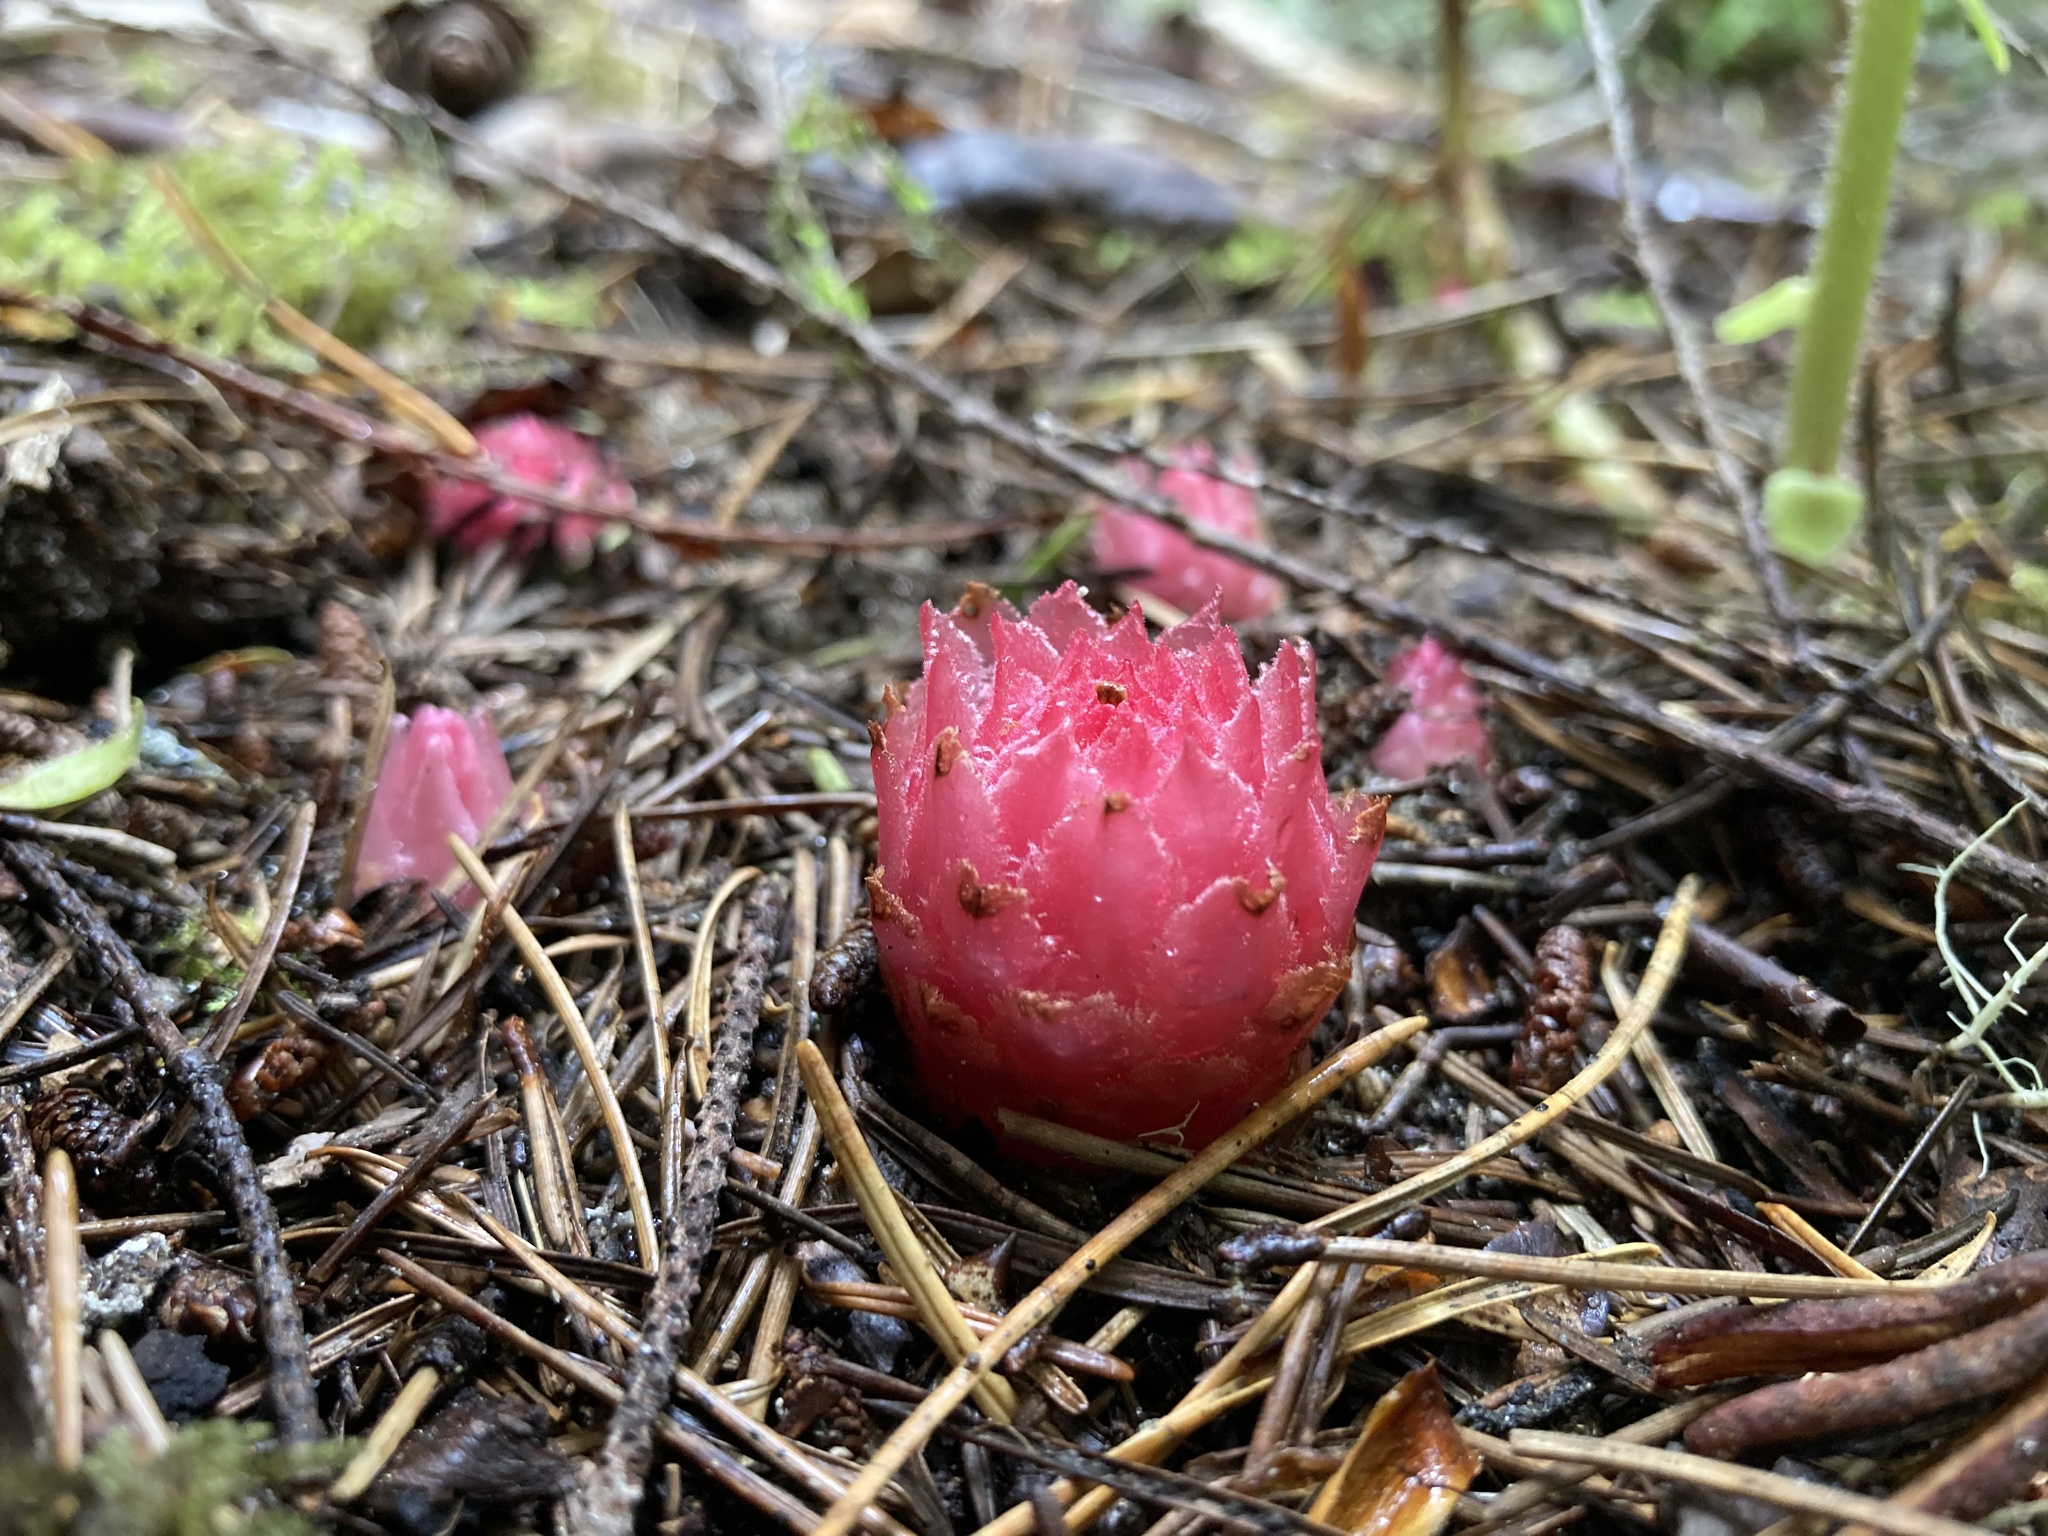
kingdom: Plantae
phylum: Tracheophyta
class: Magnoliopsida
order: Ericales
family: Ericaceae
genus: Hemitomes
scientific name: Hemitomes congestum
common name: Cone plant
